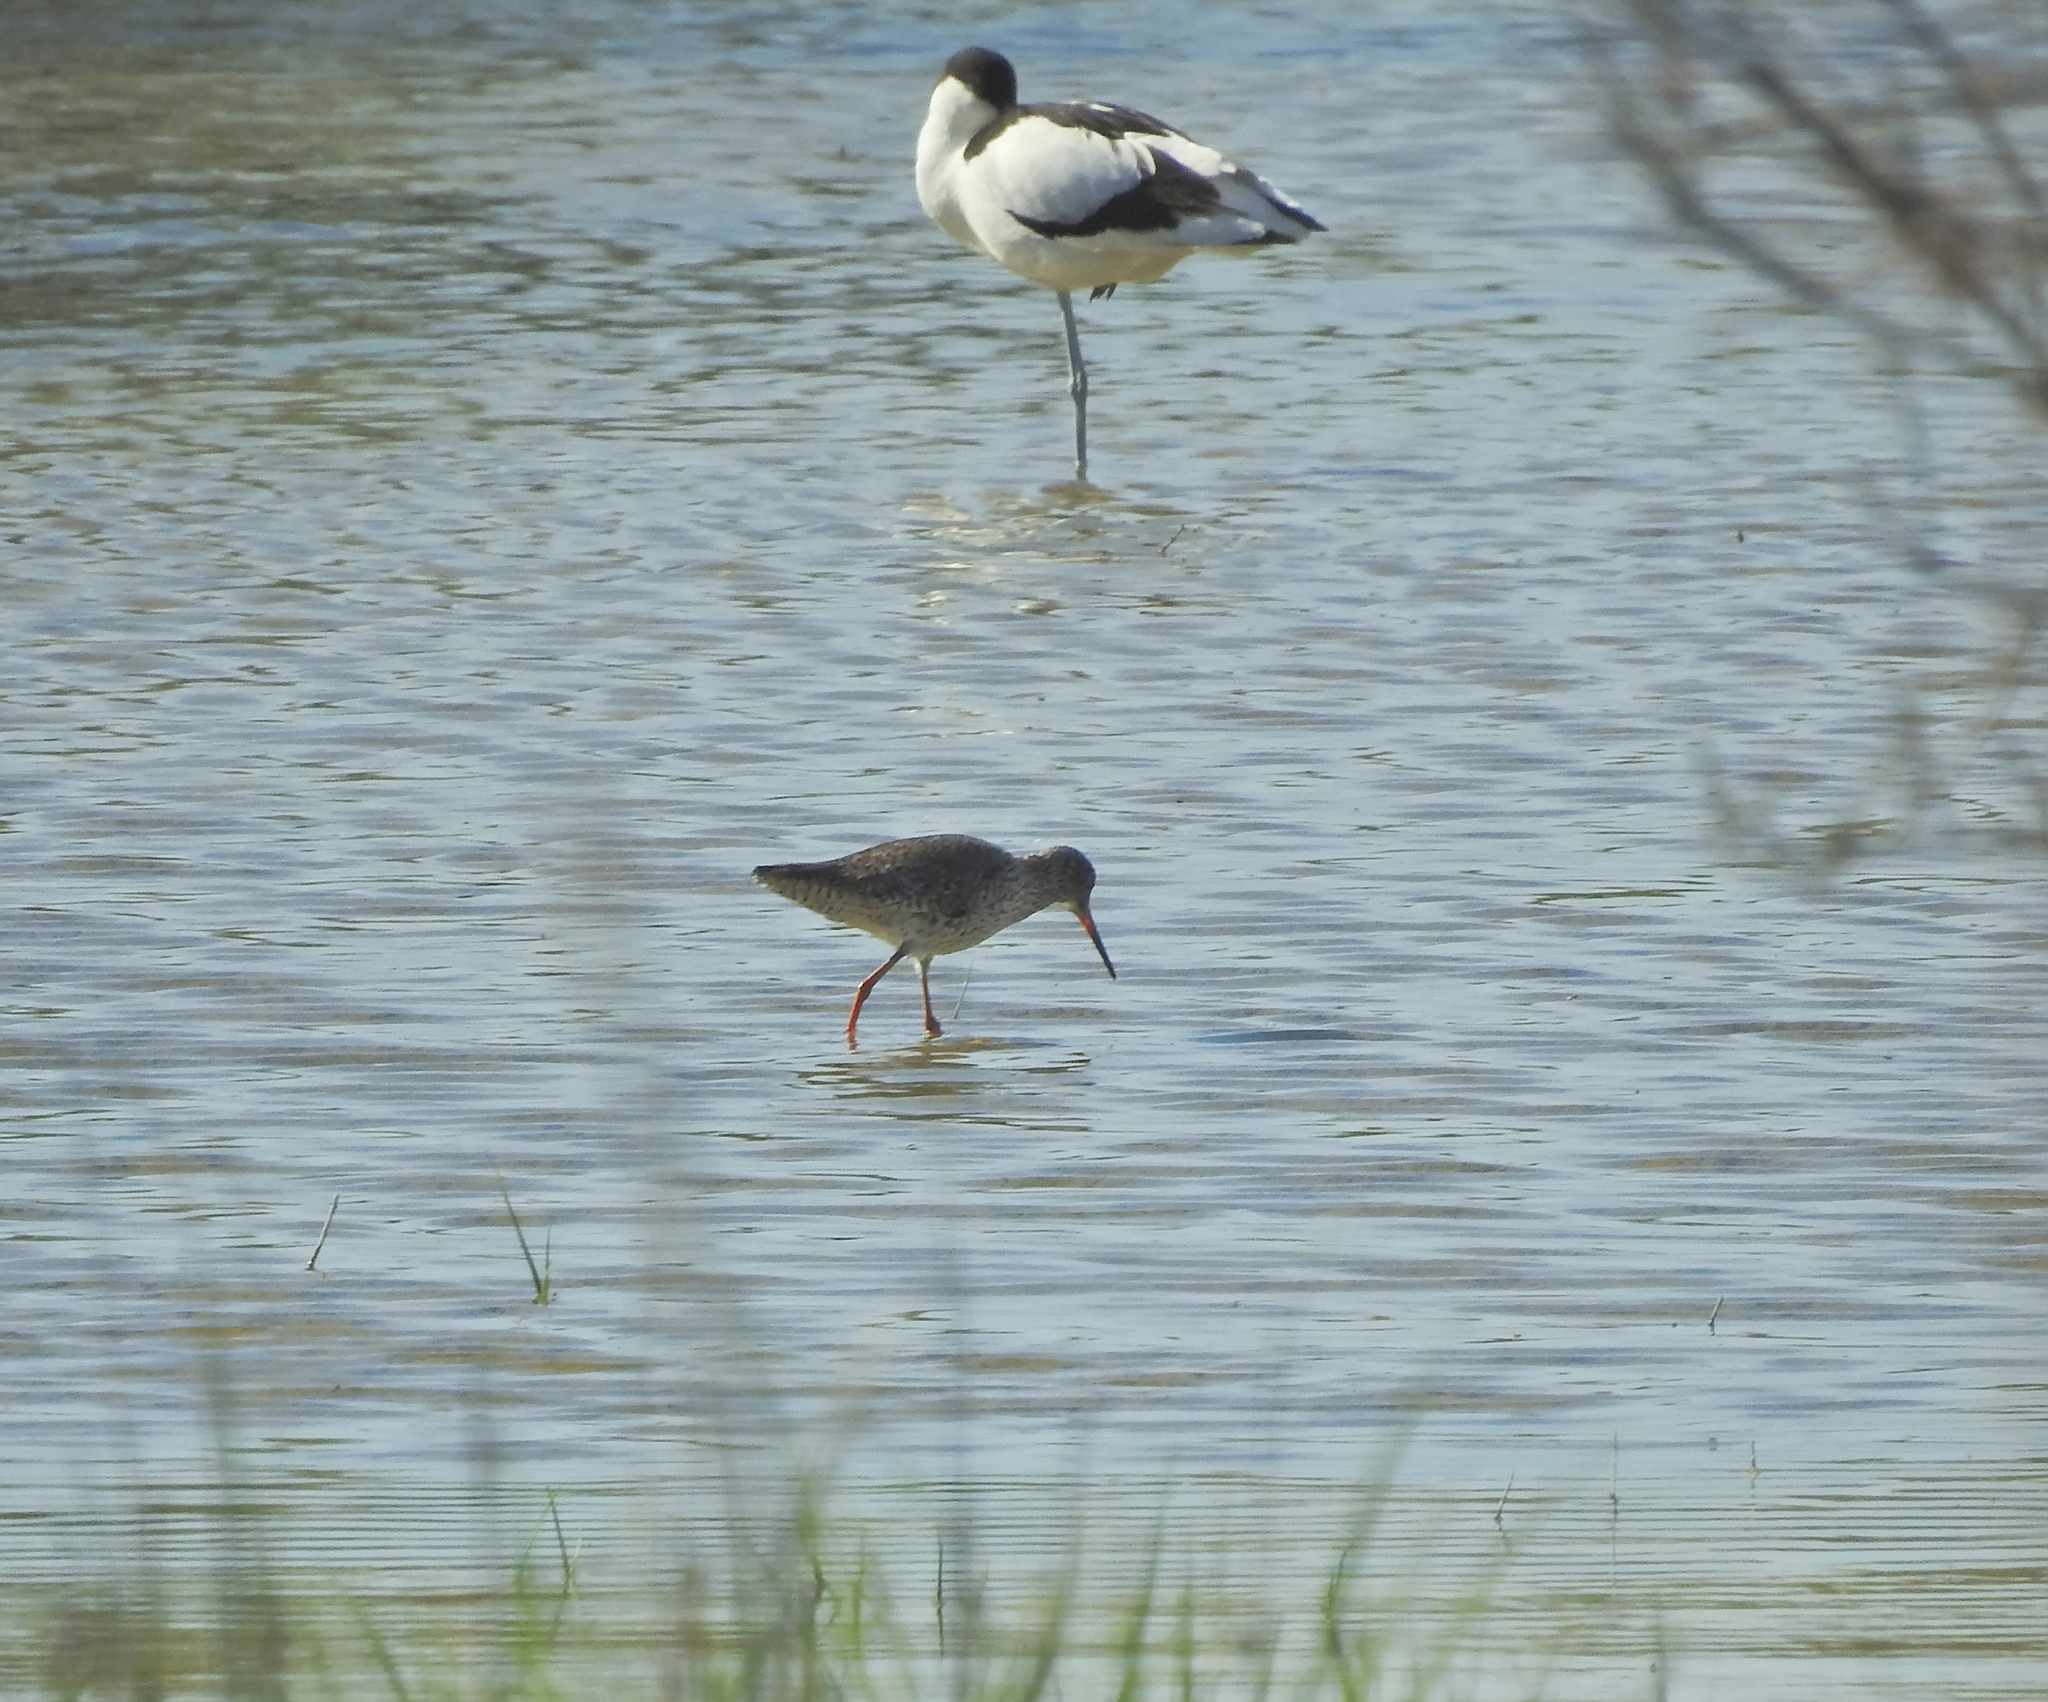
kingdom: Animalia
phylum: Chordata
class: Aves
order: Charadriiformes
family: Scolopacidae
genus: Tringa
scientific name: Tringa totanus
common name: Common redshank
